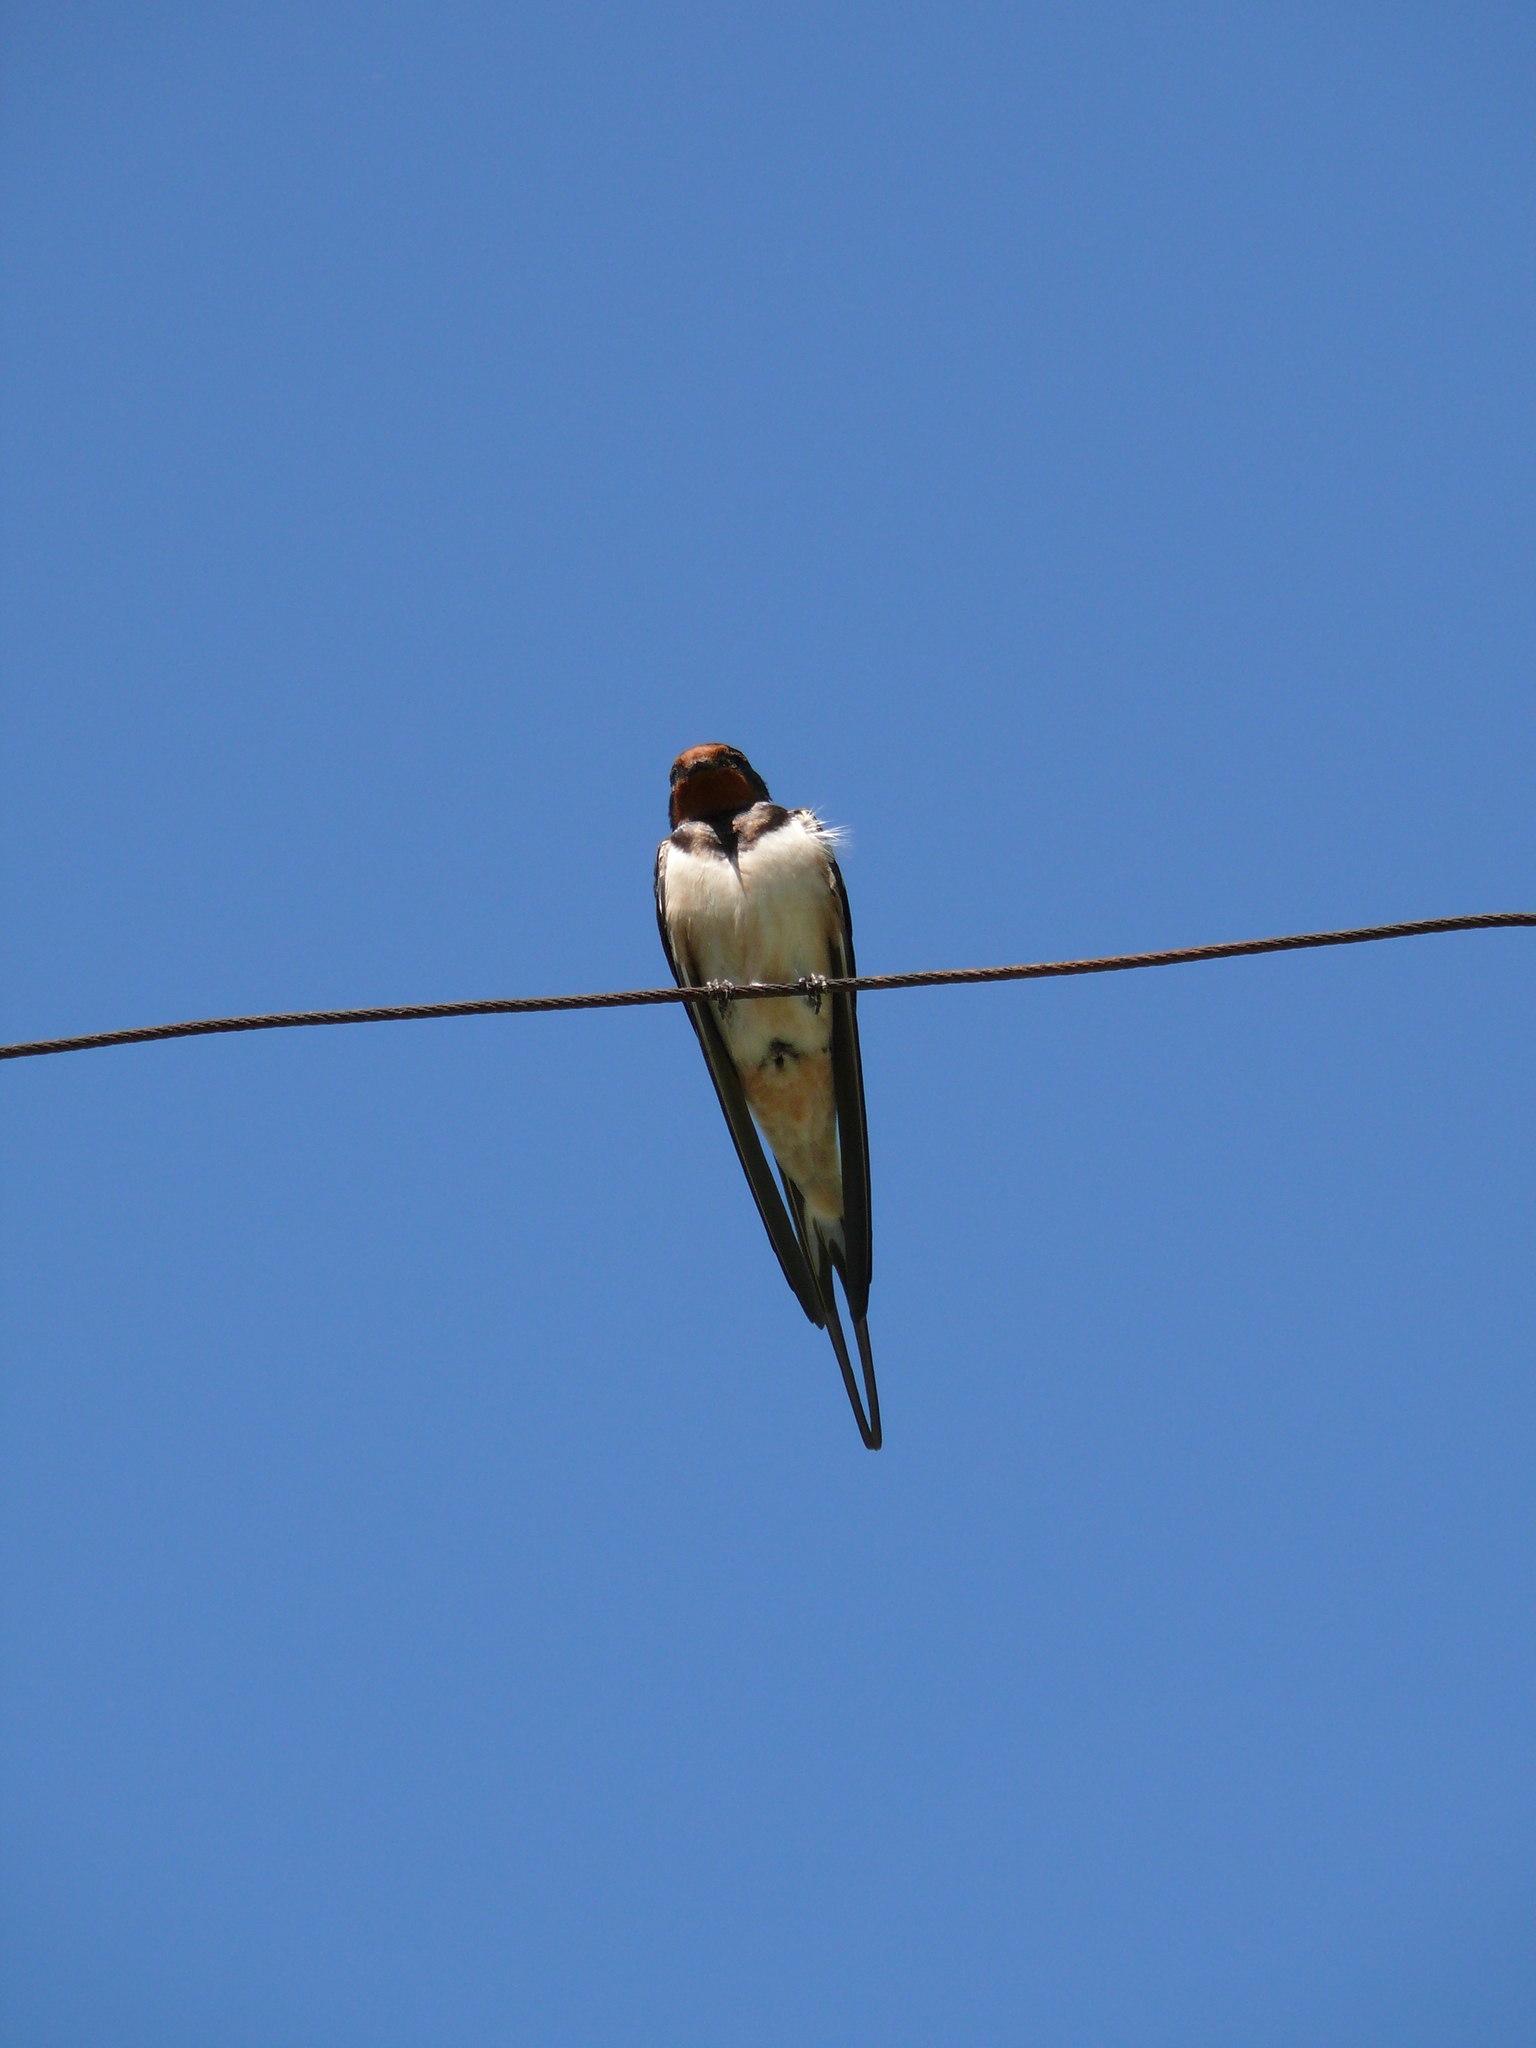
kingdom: Animalia
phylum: Chordata
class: Aves
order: Passeriformes
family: Hirundinidae
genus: Hirundo
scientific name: Hirundo rustica
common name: Barn swallow
